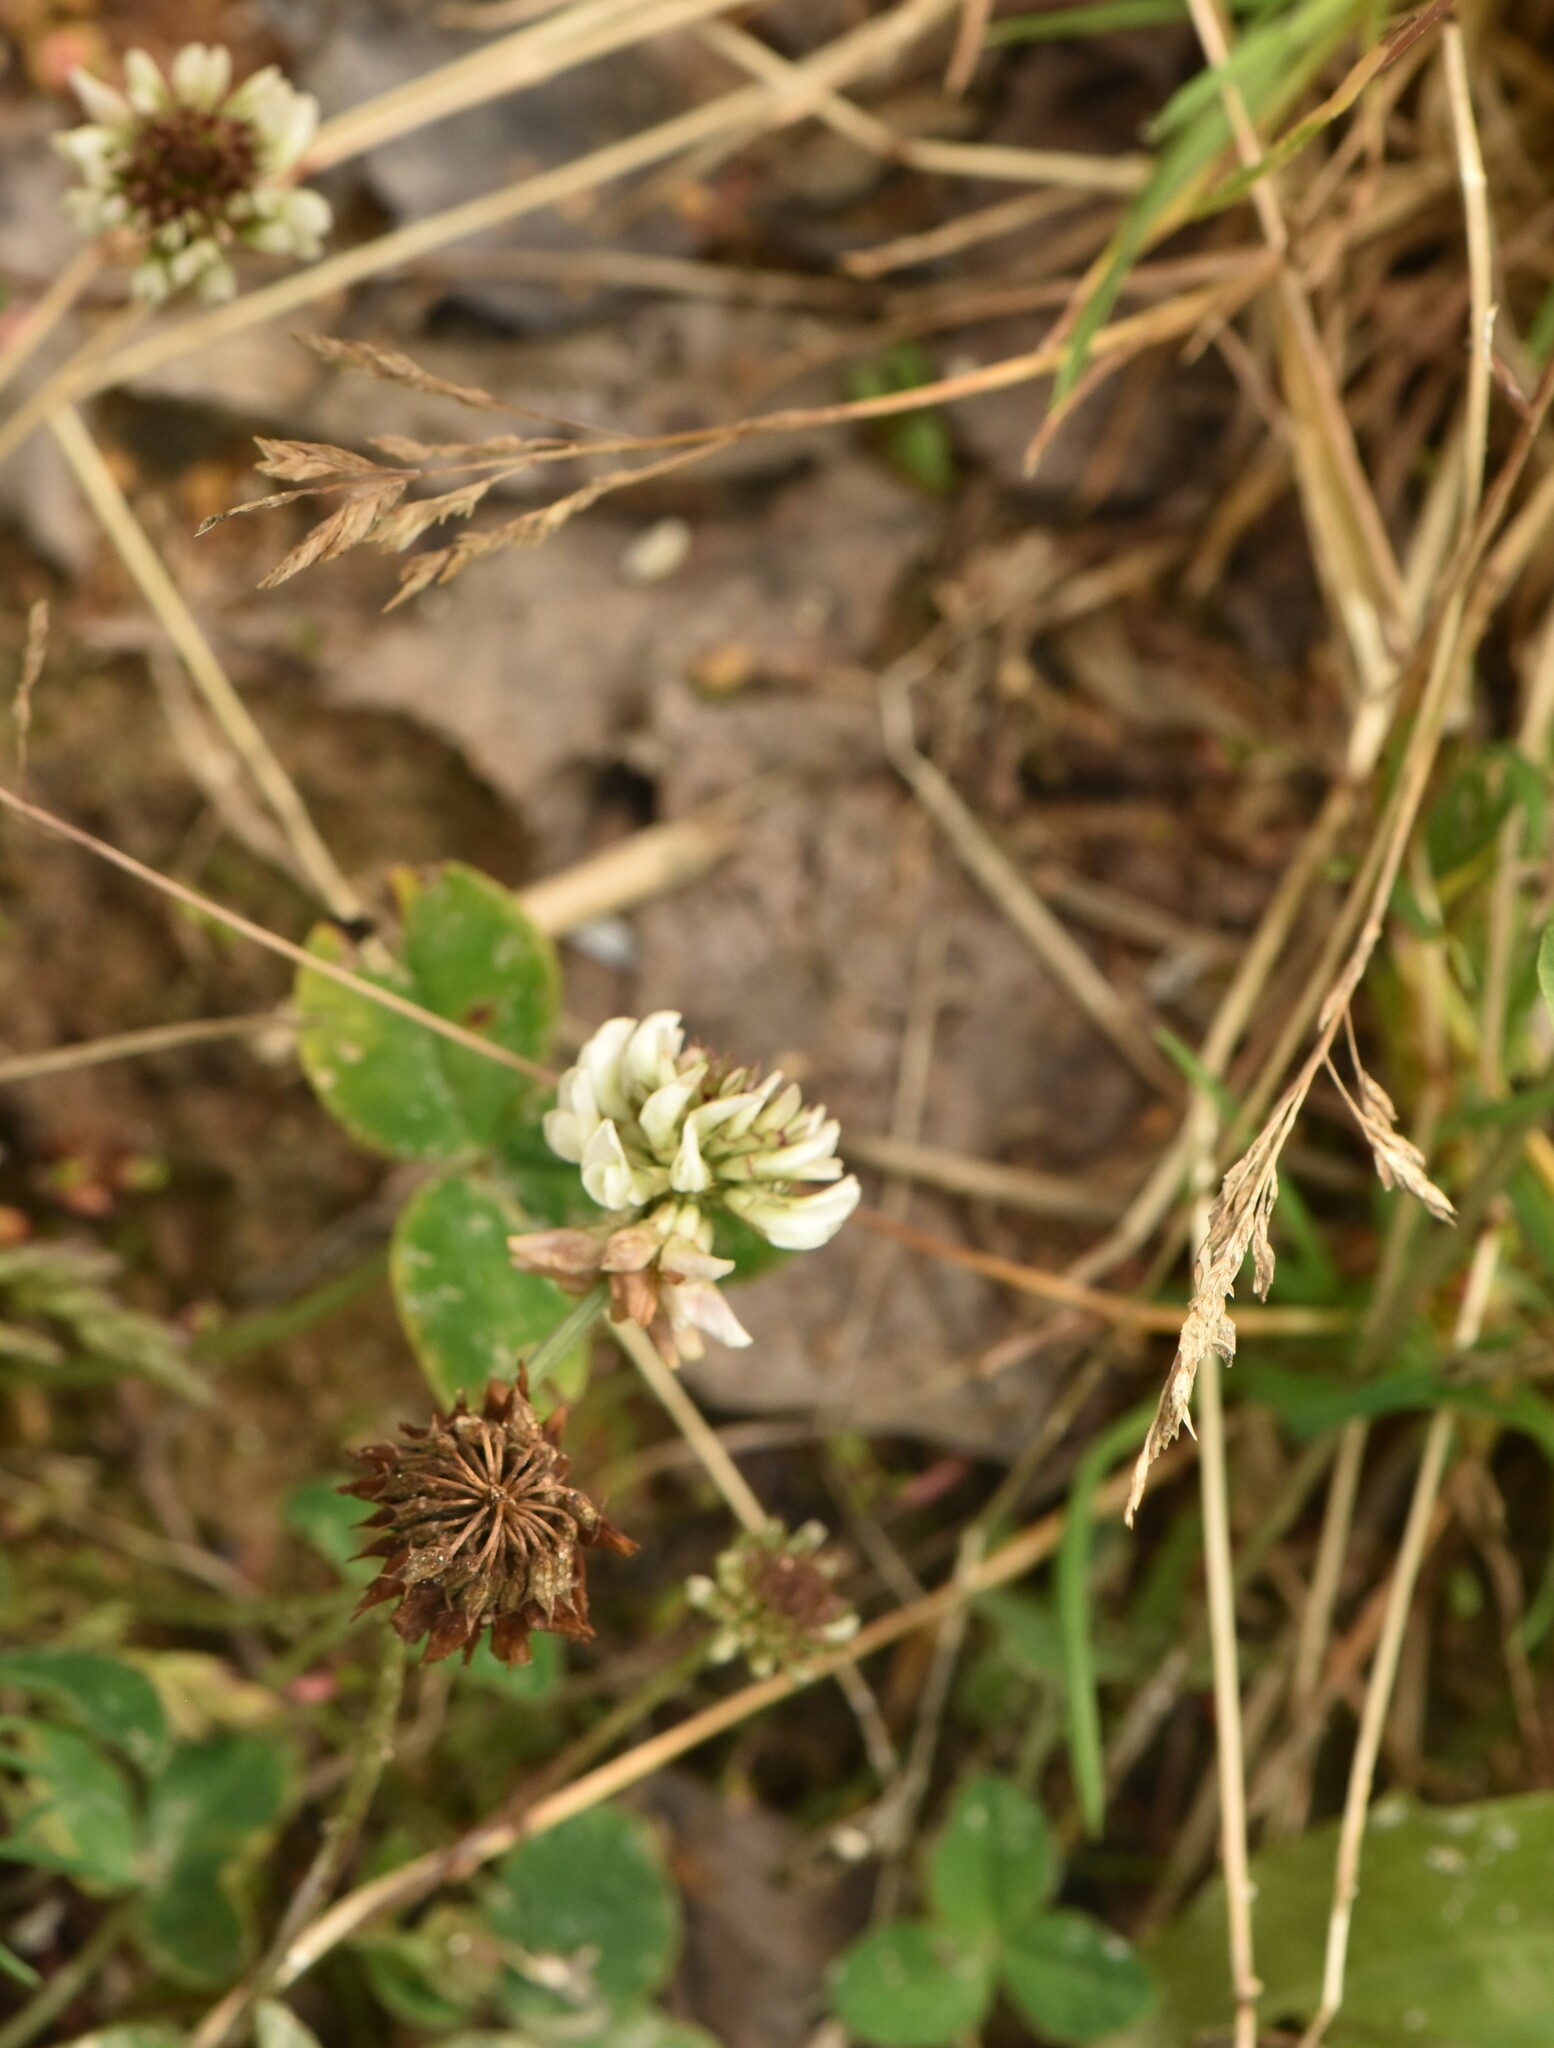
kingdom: Plantae
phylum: Tracheophyta
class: Magnoliopsida
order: Fabales
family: Fabaceae
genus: Trifolium
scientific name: Trifolium repens
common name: White clover
